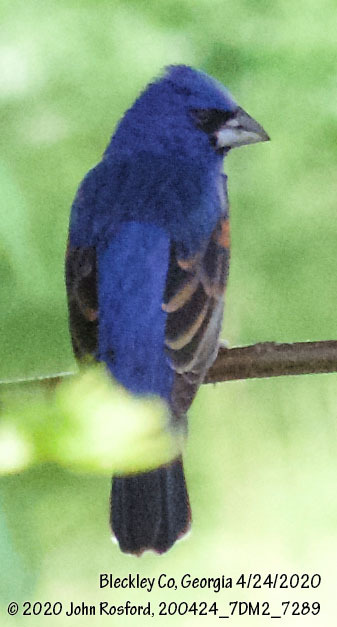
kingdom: Animalia
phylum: Chordata
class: Aves
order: Passeriformes
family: Cardinalidae
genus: Passerina
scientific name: Passerina caerulea
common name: Blue grosbeak
